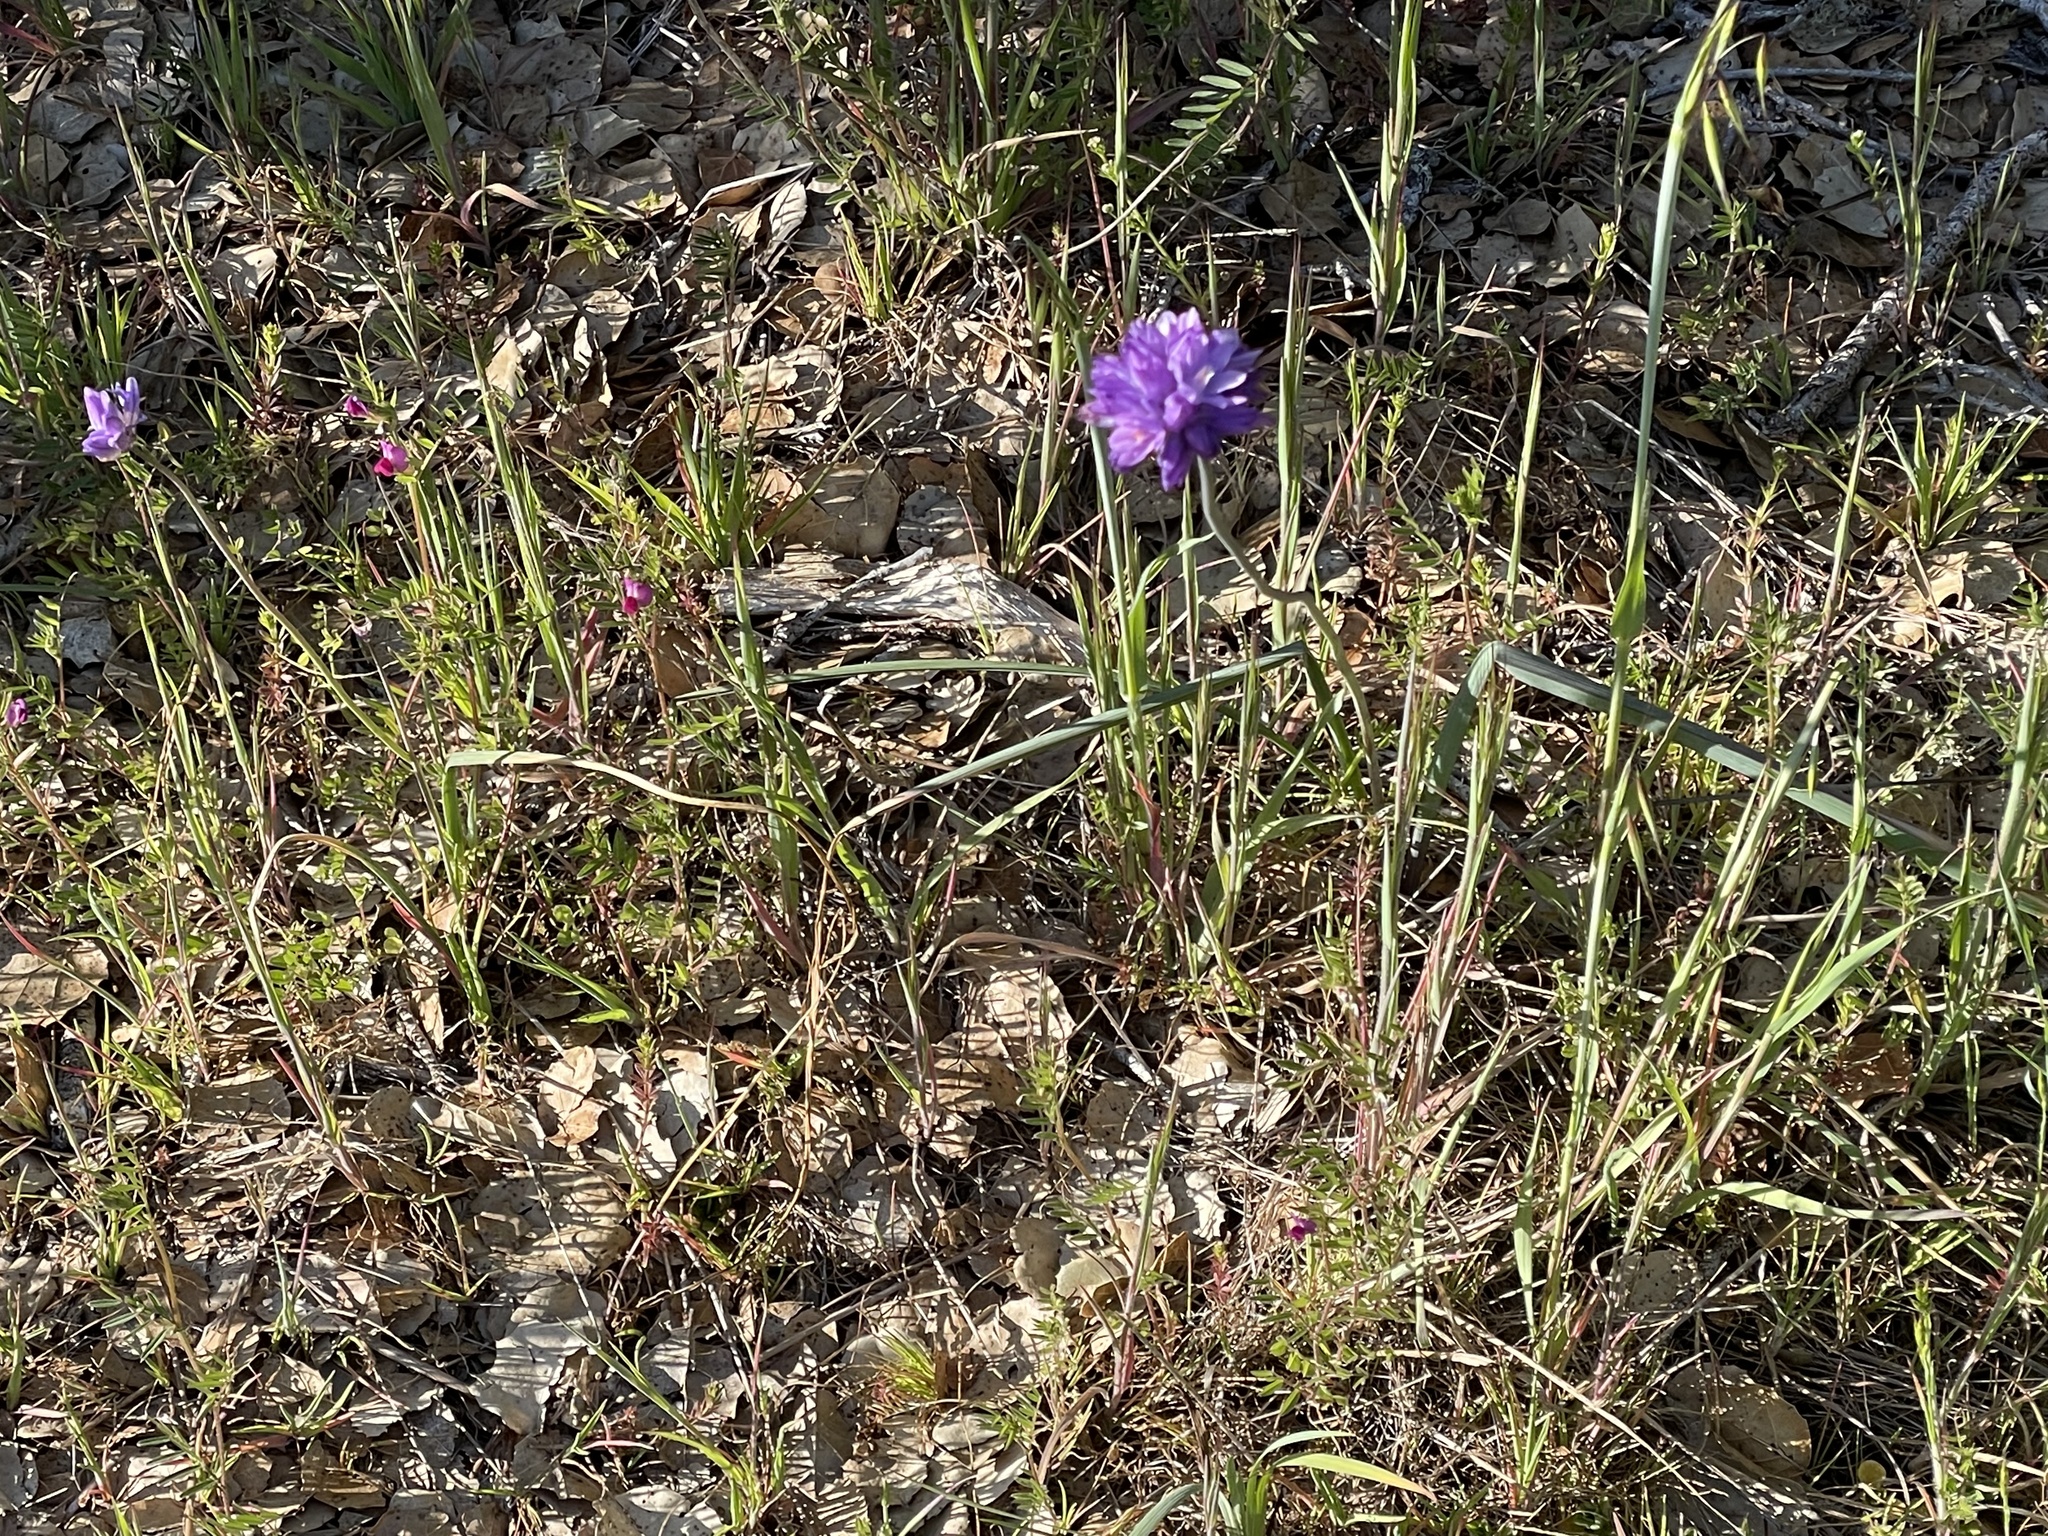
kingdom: Plantae
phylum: Tracheophyta
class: Liliopsida
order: Asparagales
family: Asparagaceae
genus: Dipterostemon
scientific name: Dipterostemon capitatus
